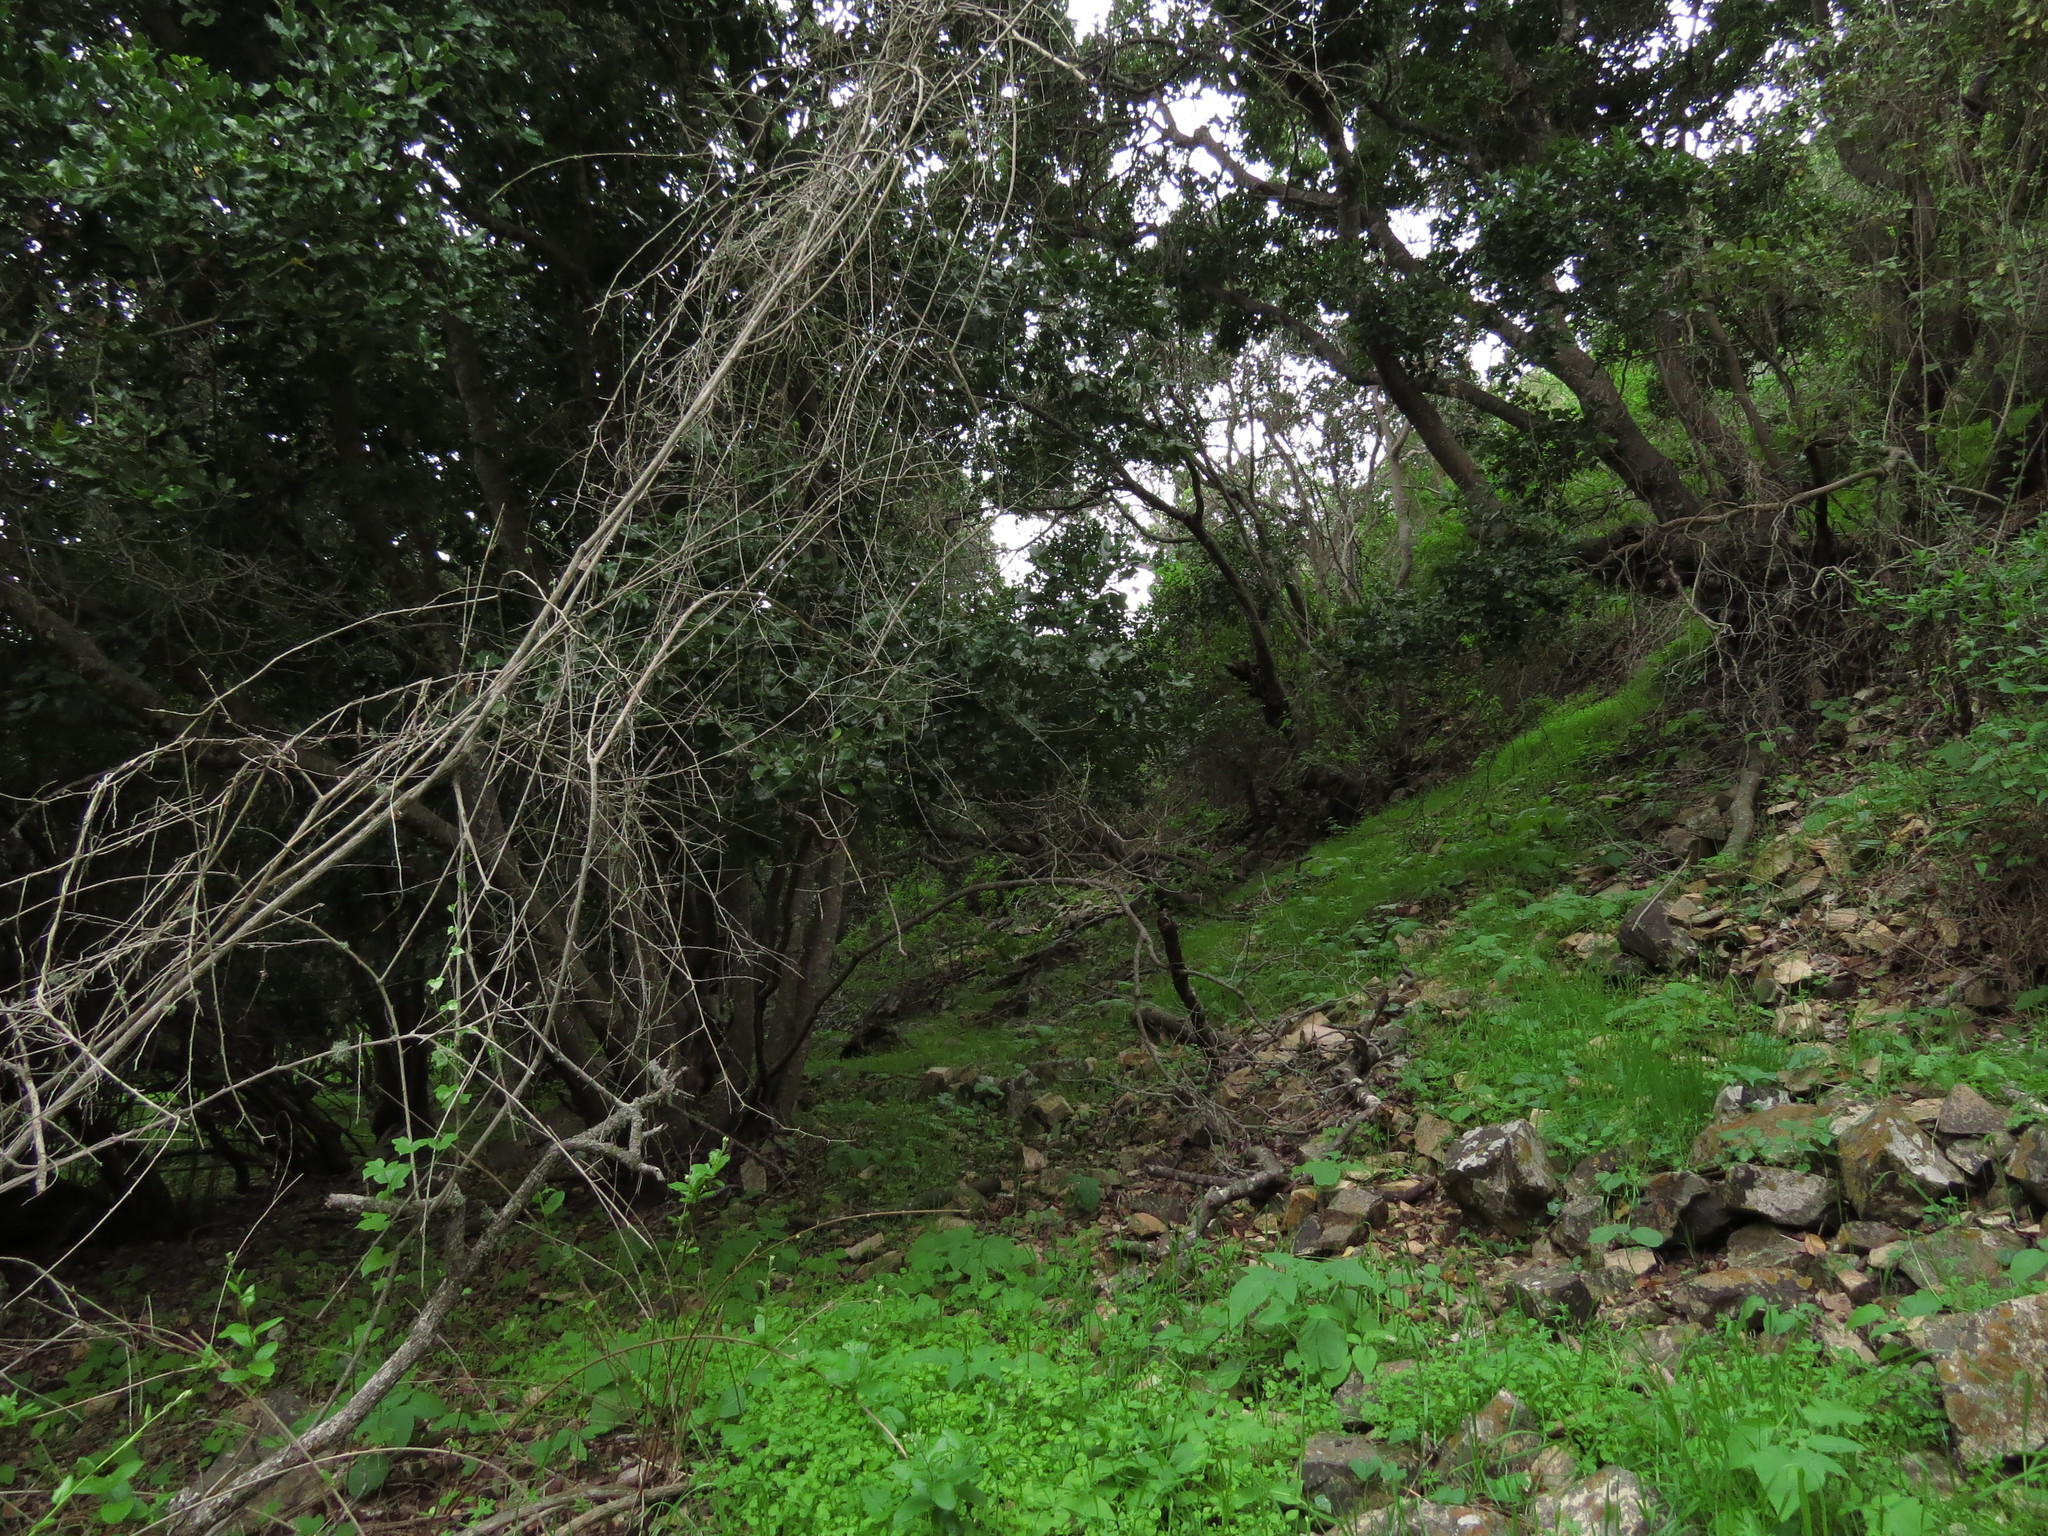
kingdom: Plantae
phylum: Tracheophyta
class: Magnoliopsida
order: Laurales
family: Lauraceae
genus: Cryptocarya
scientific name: Cryptocarya alba
